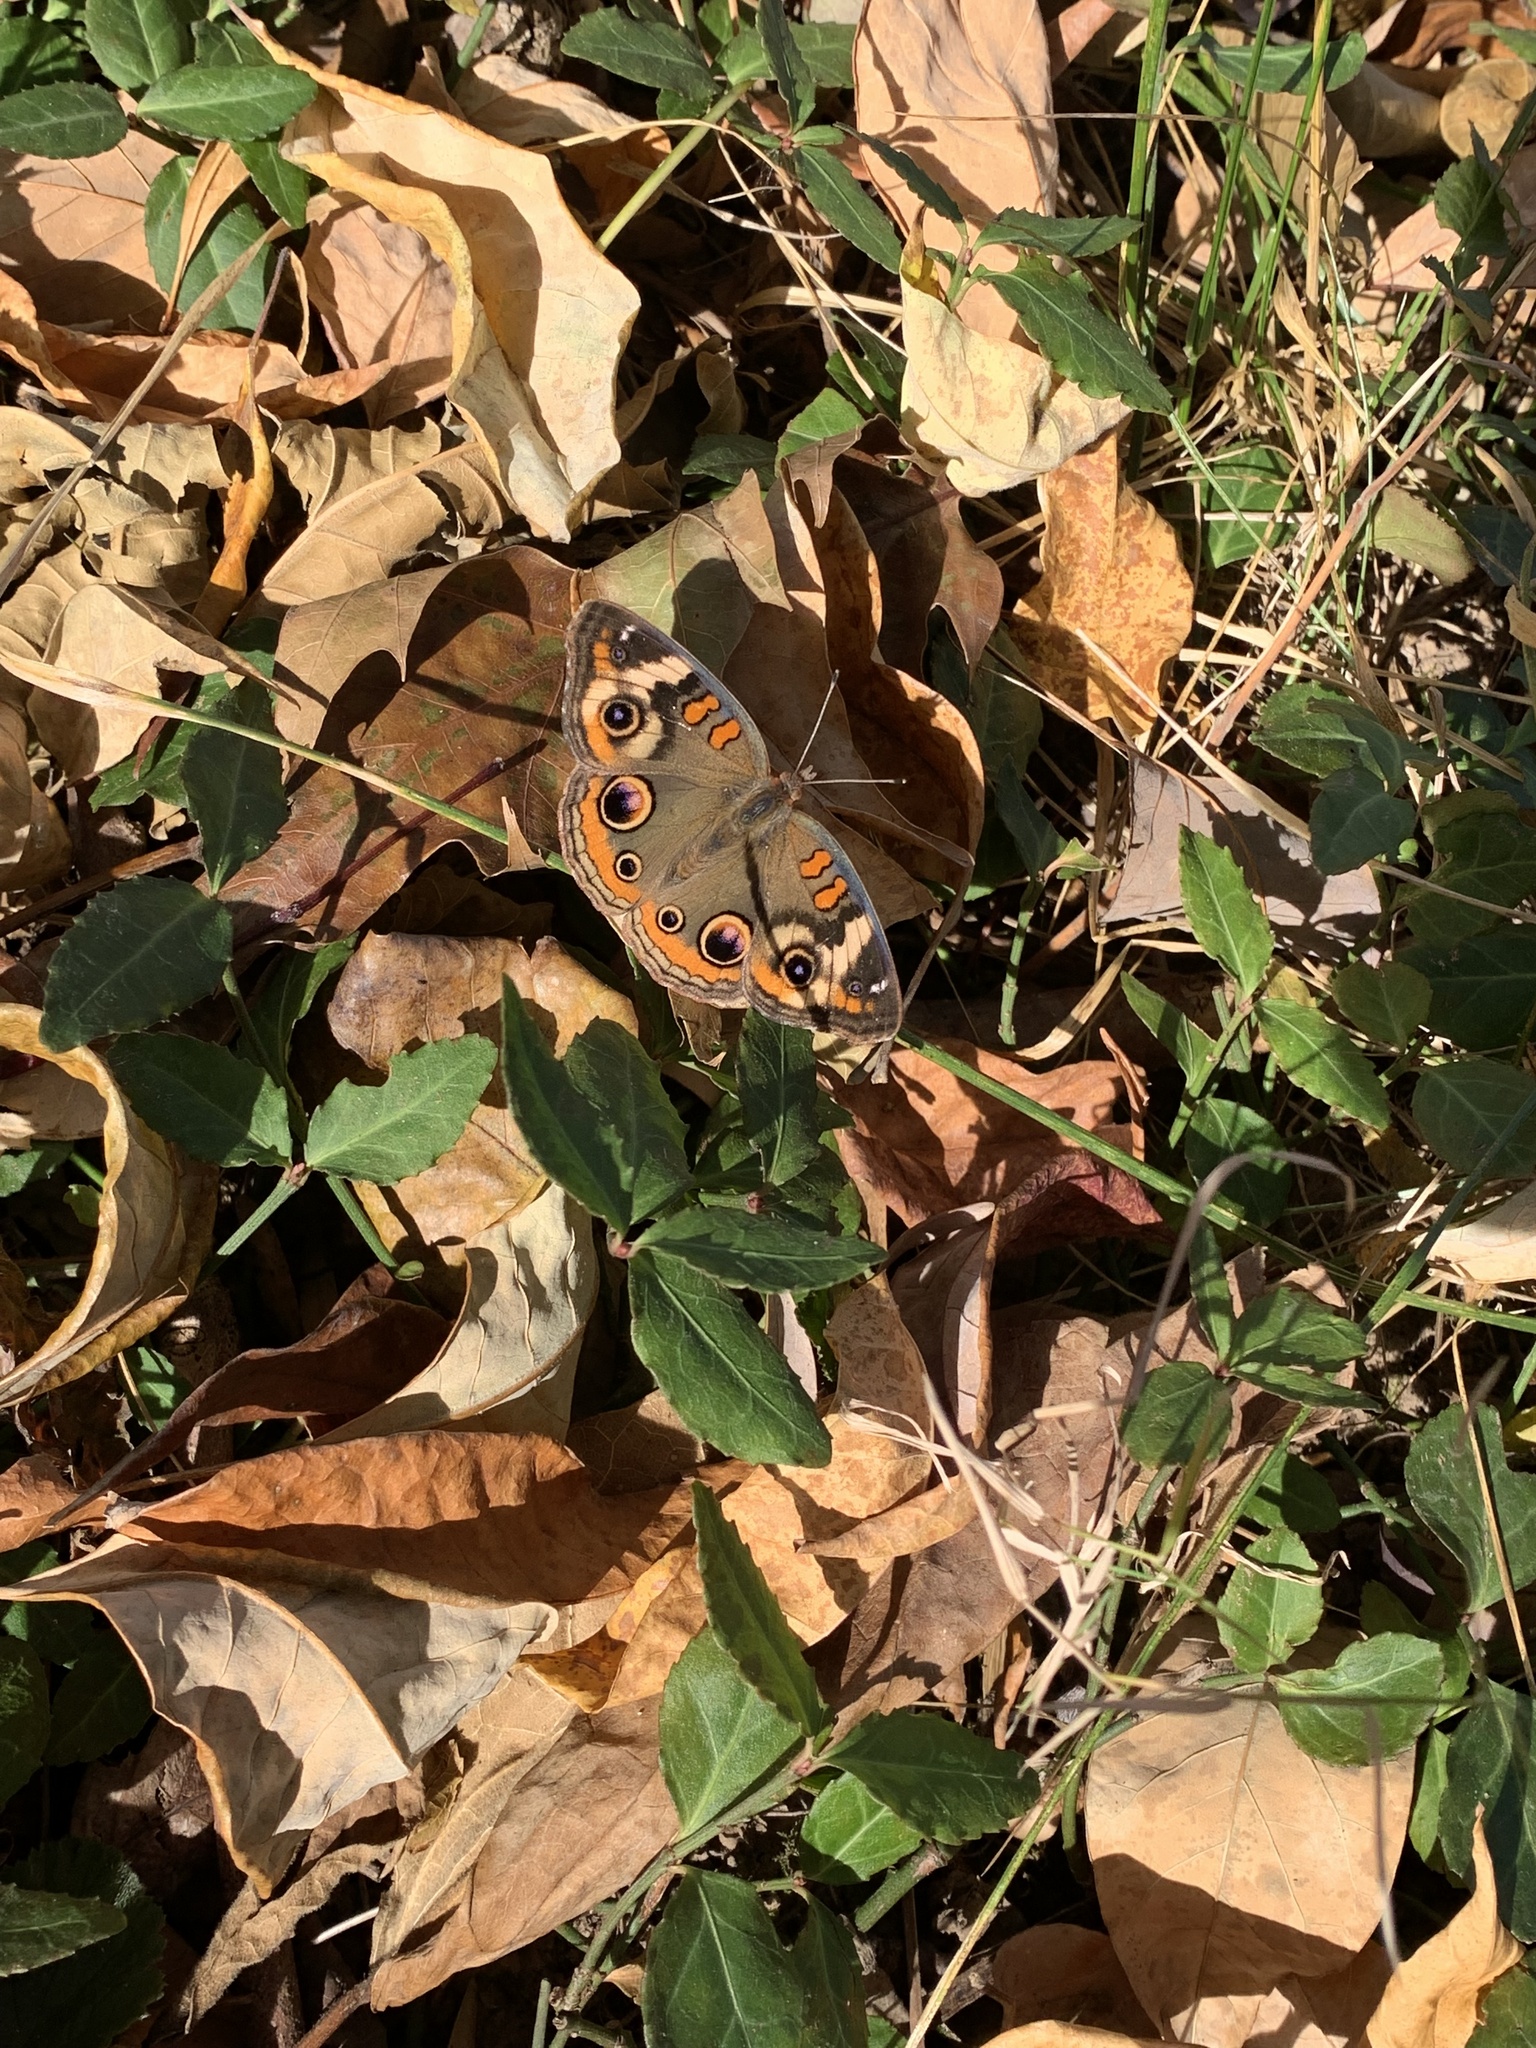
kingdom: Animalia
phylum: Arthropoda
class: Insecta
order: Lepidoptera
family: Nymphalidae
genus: Junonia
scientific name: Junonia coenia
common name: Common buckeye
